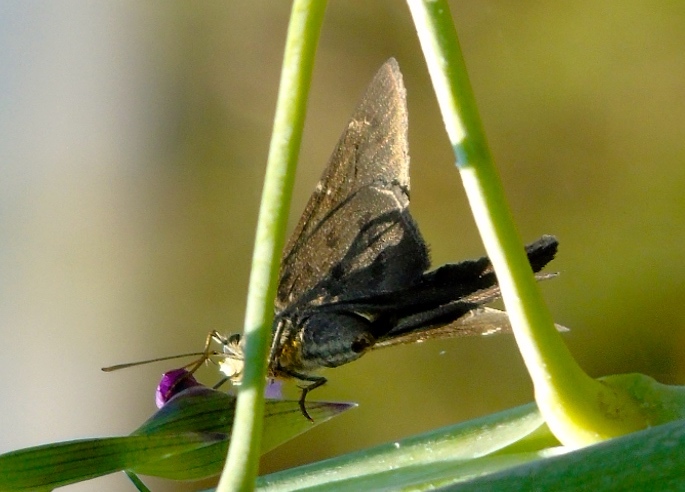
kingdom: Animalia
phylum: Arthropoda
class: Insecta
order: Lepidoptera
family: Hesperiidae
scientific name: Hesperiidae
